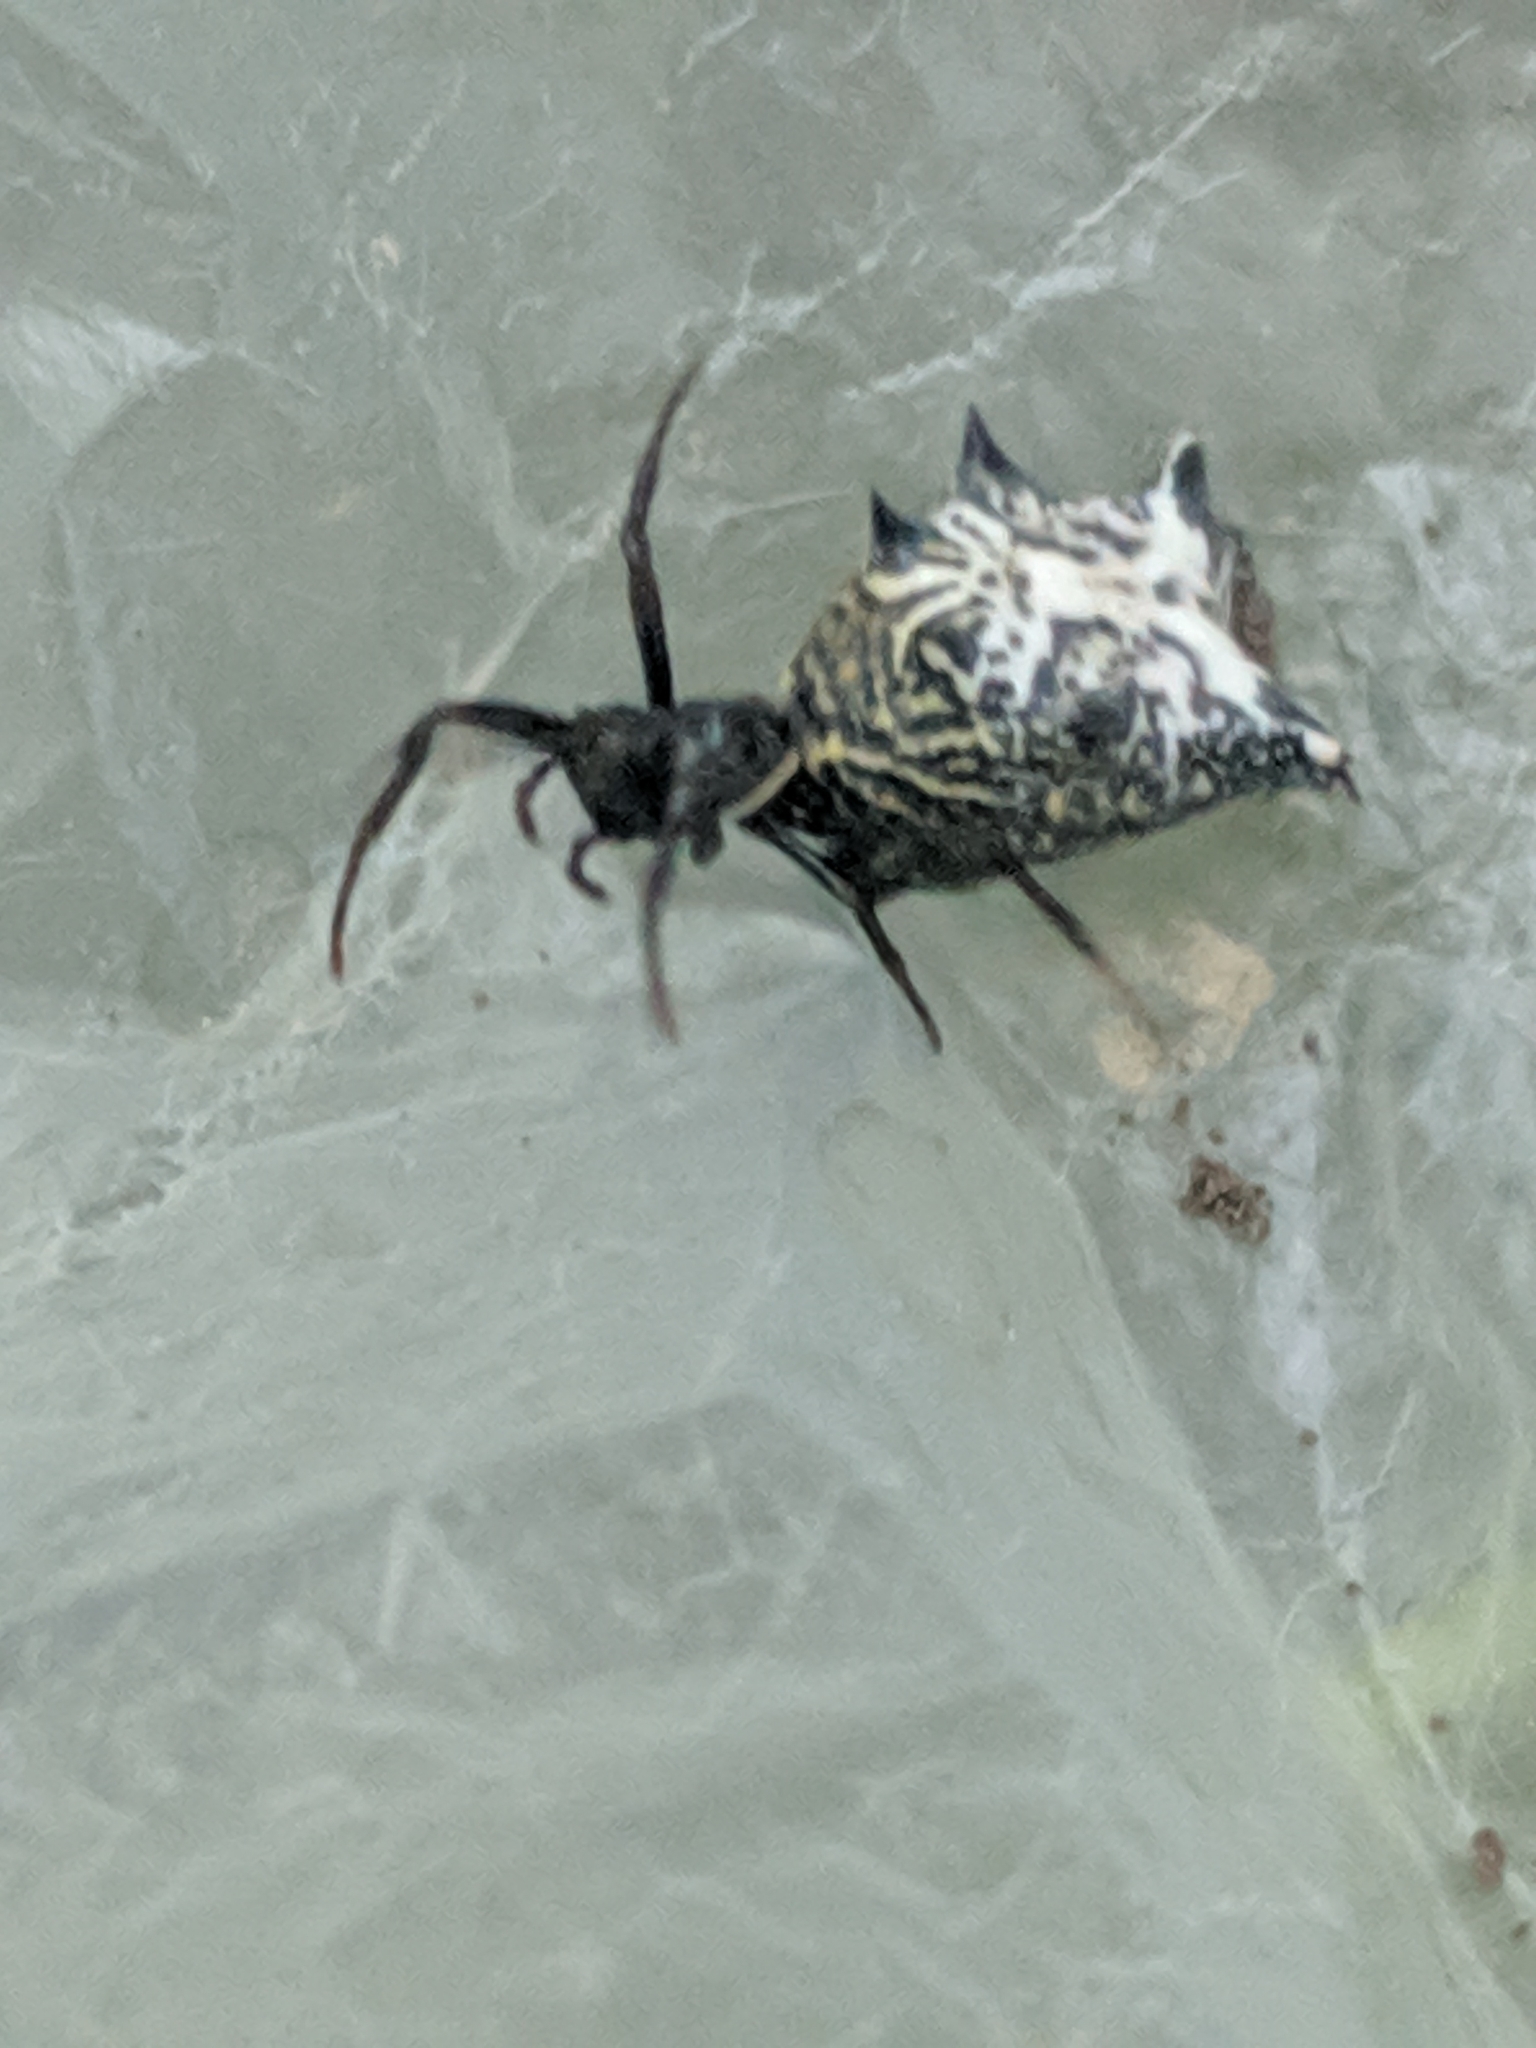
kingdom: Animalia
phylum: Arthropoda
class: Arachnida
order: Araneae
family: Araneidae
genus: Micrathena
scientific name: Micrathena gracilis
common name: Orb weavers
